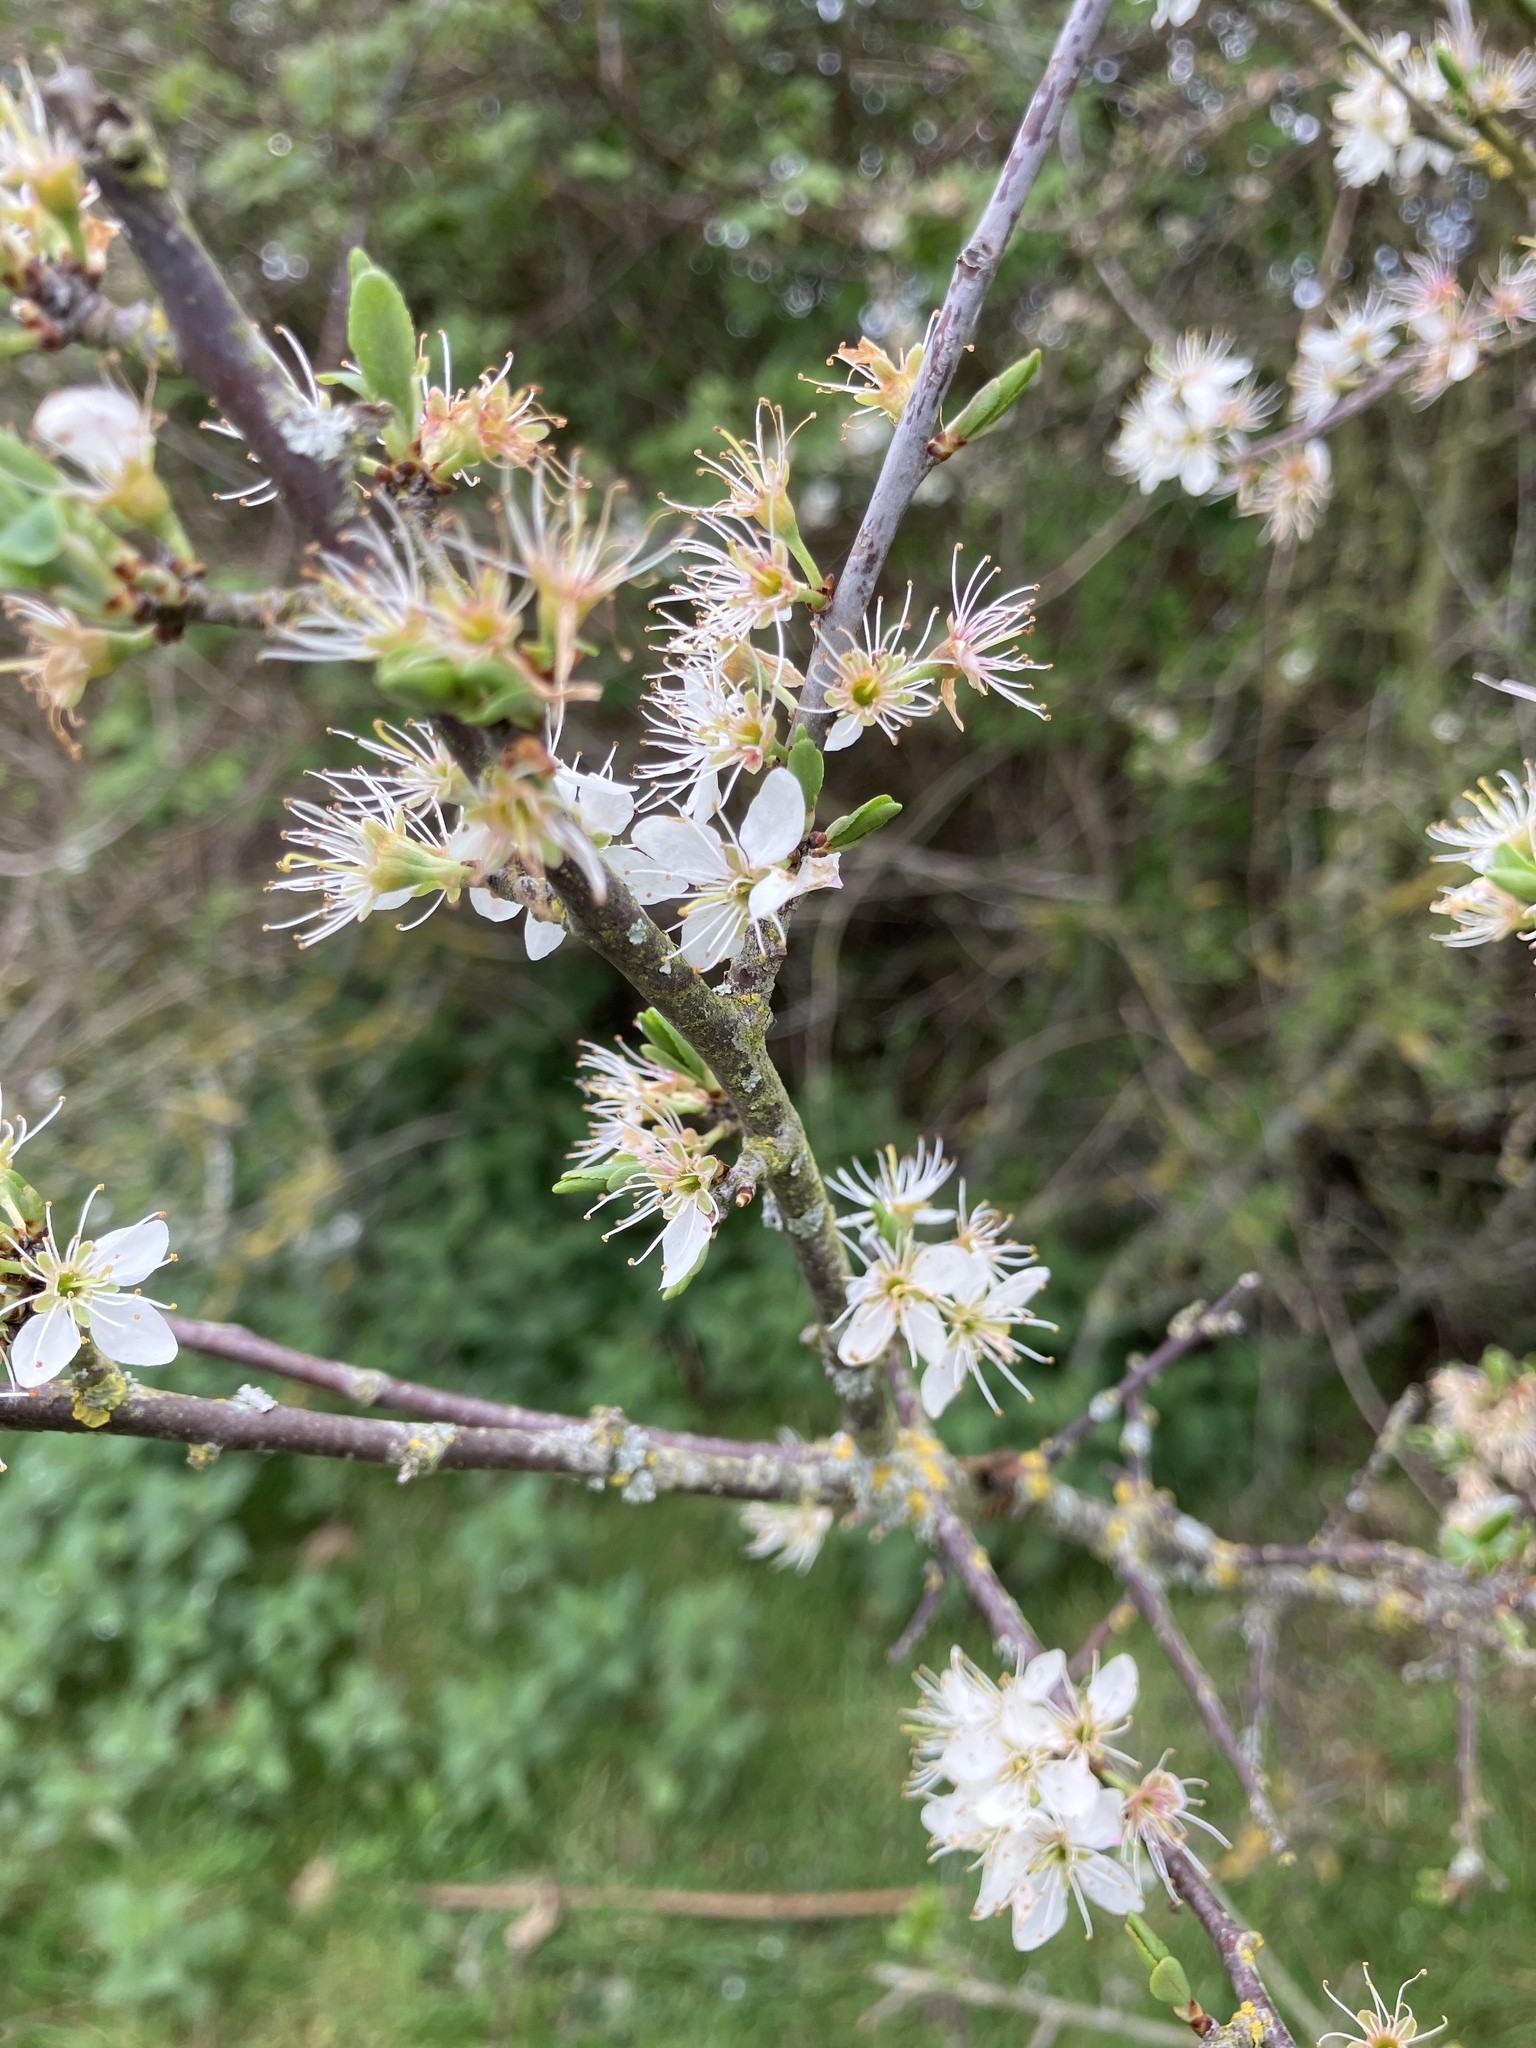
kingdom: Plantae
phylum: Tracheophyta
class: Magnoliopsida
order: Rosales
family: Rosaceae
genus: Prunus
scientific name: Prunus spinosa
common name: Blackthorn
